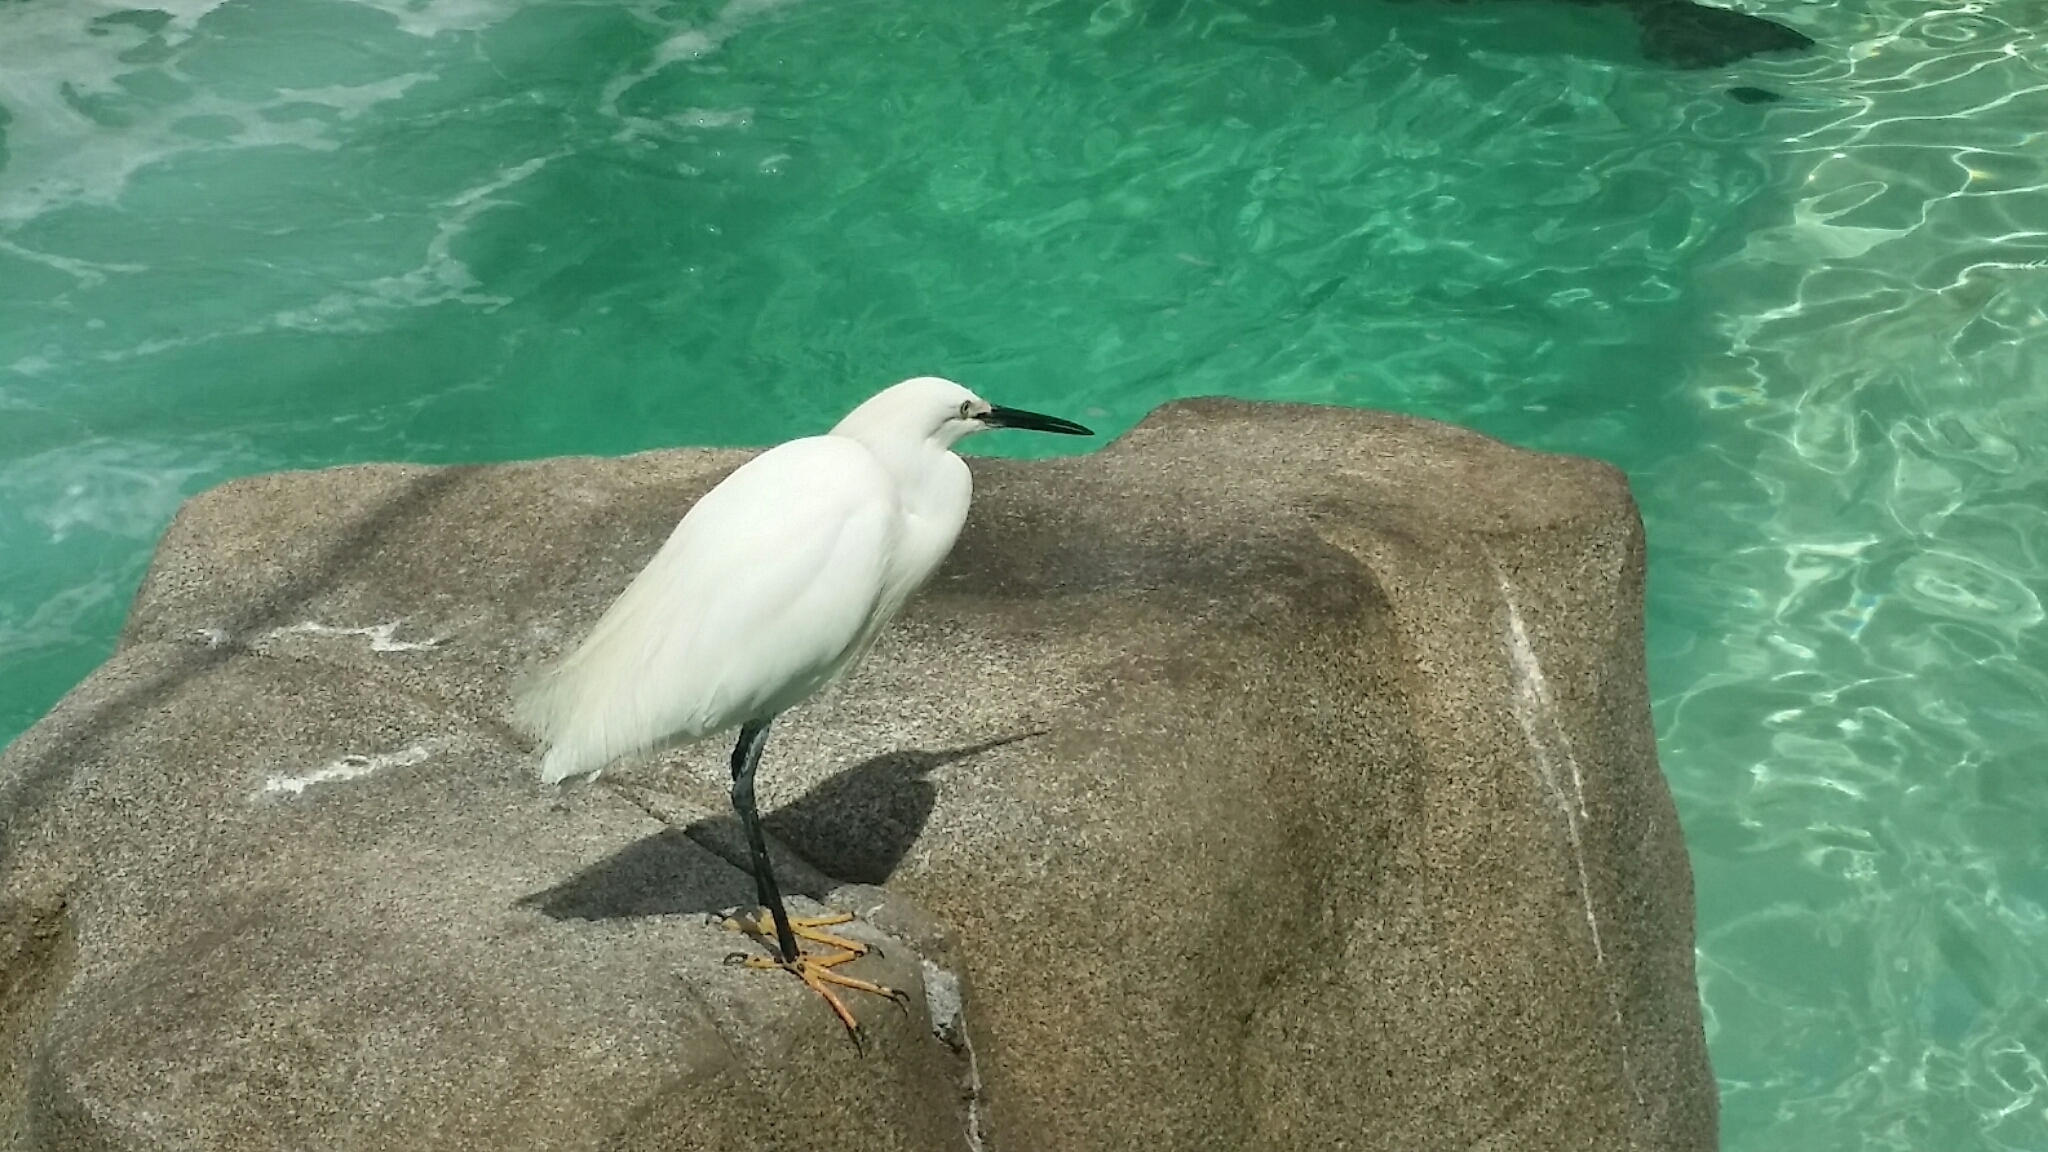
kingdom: Animalia
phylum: Chordata
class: Aves
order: Pelecaniformes
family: Ardeidae
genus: Egretta
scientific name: Egretta thula
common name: Snowy egret
